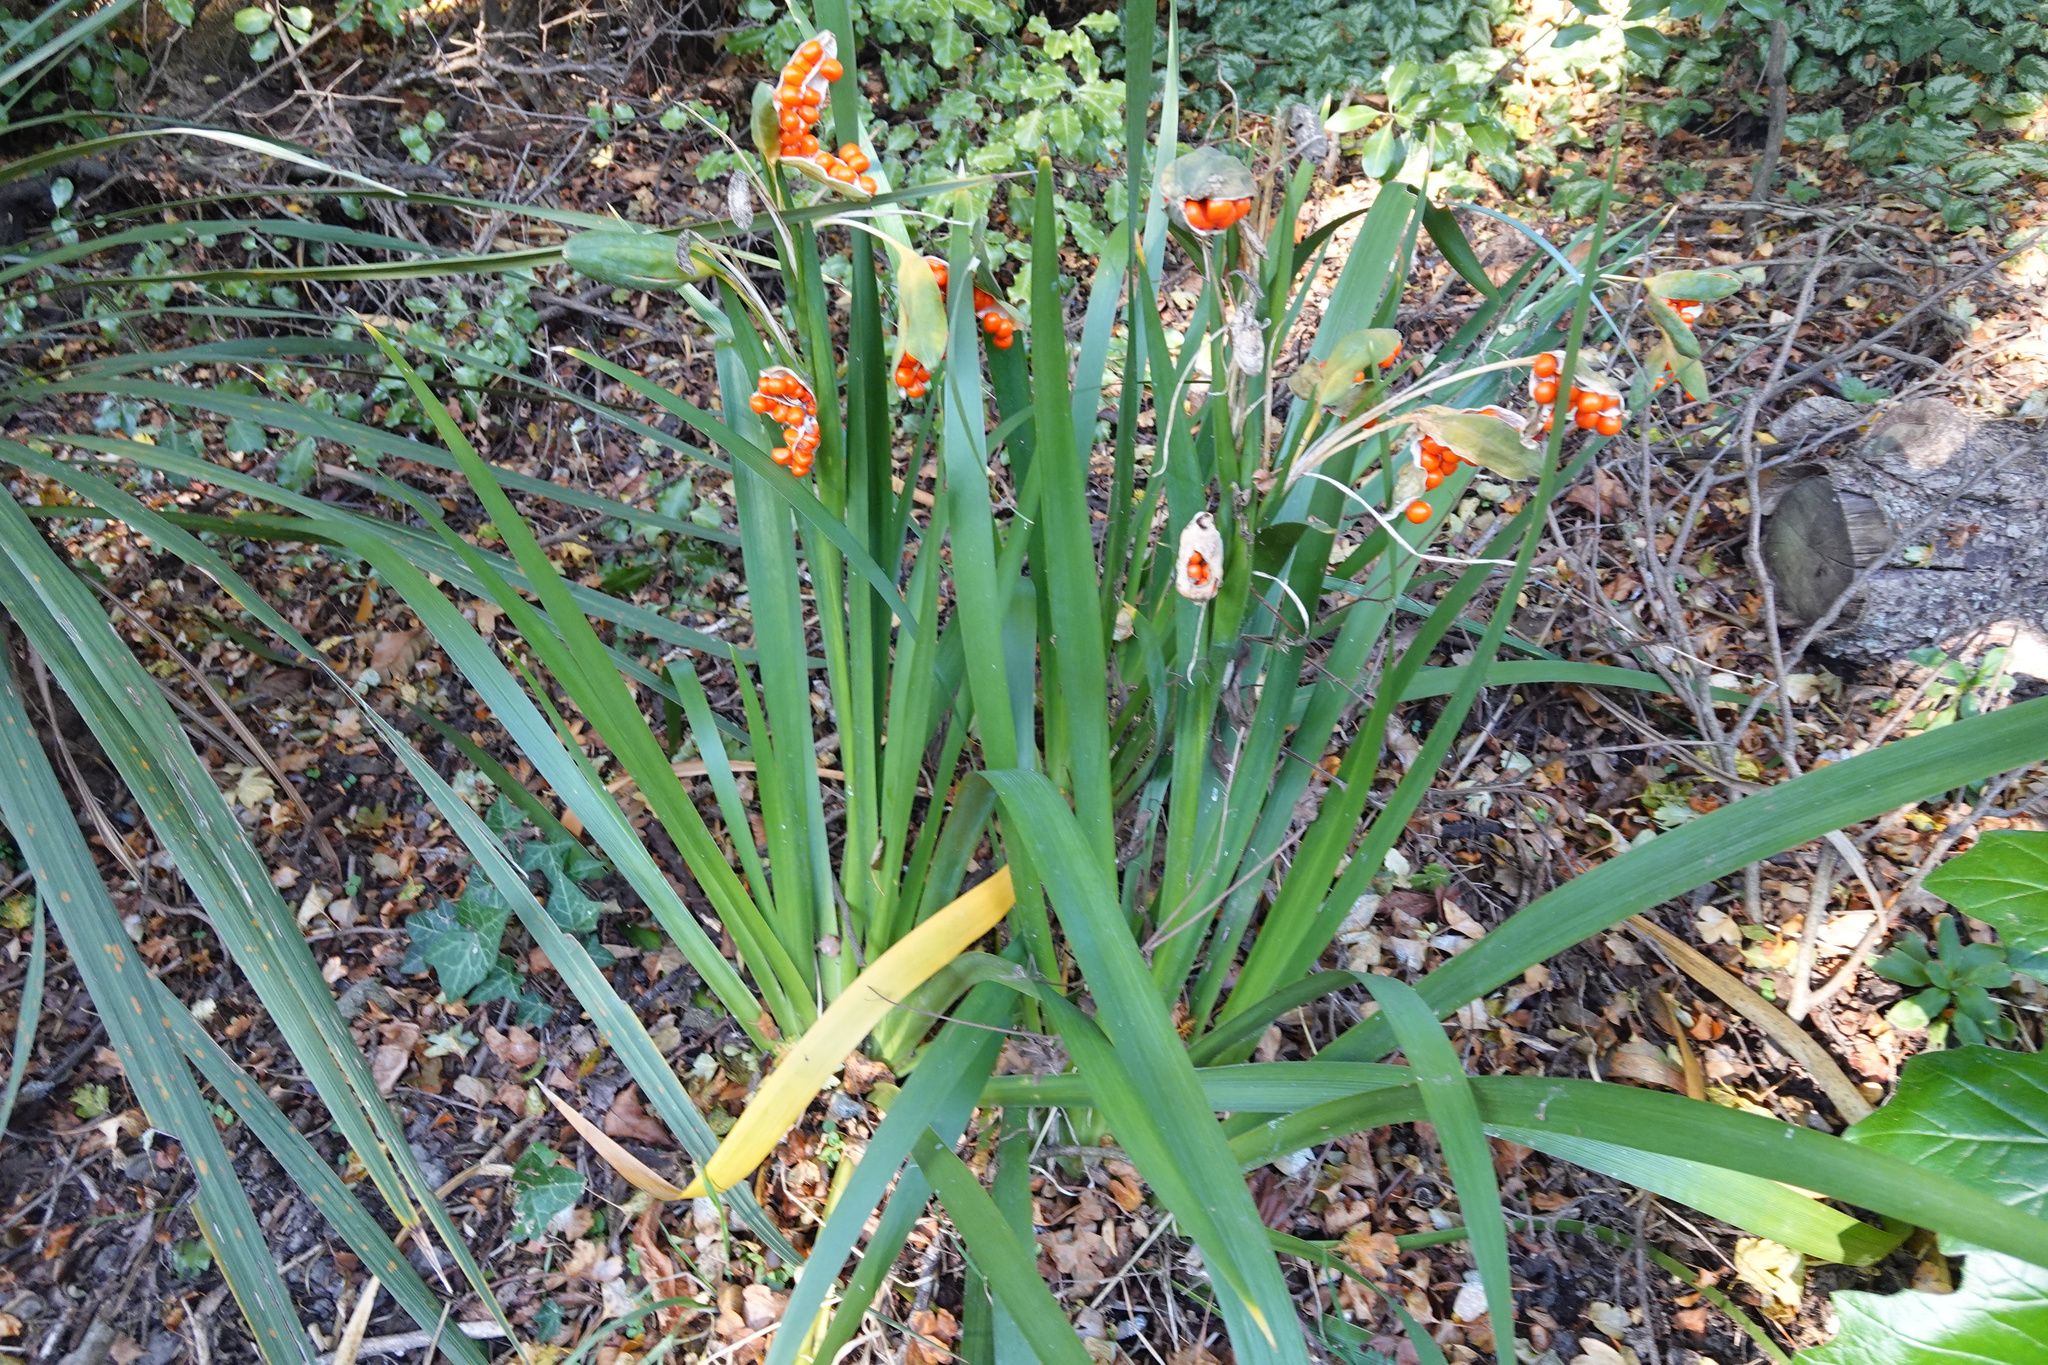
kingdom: Plantae
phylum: Tracheophyta
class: Liliopsida
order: Asparagales
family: Iridaceae
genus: Iris
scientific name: Iris foetidissima
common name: Stinking iris
